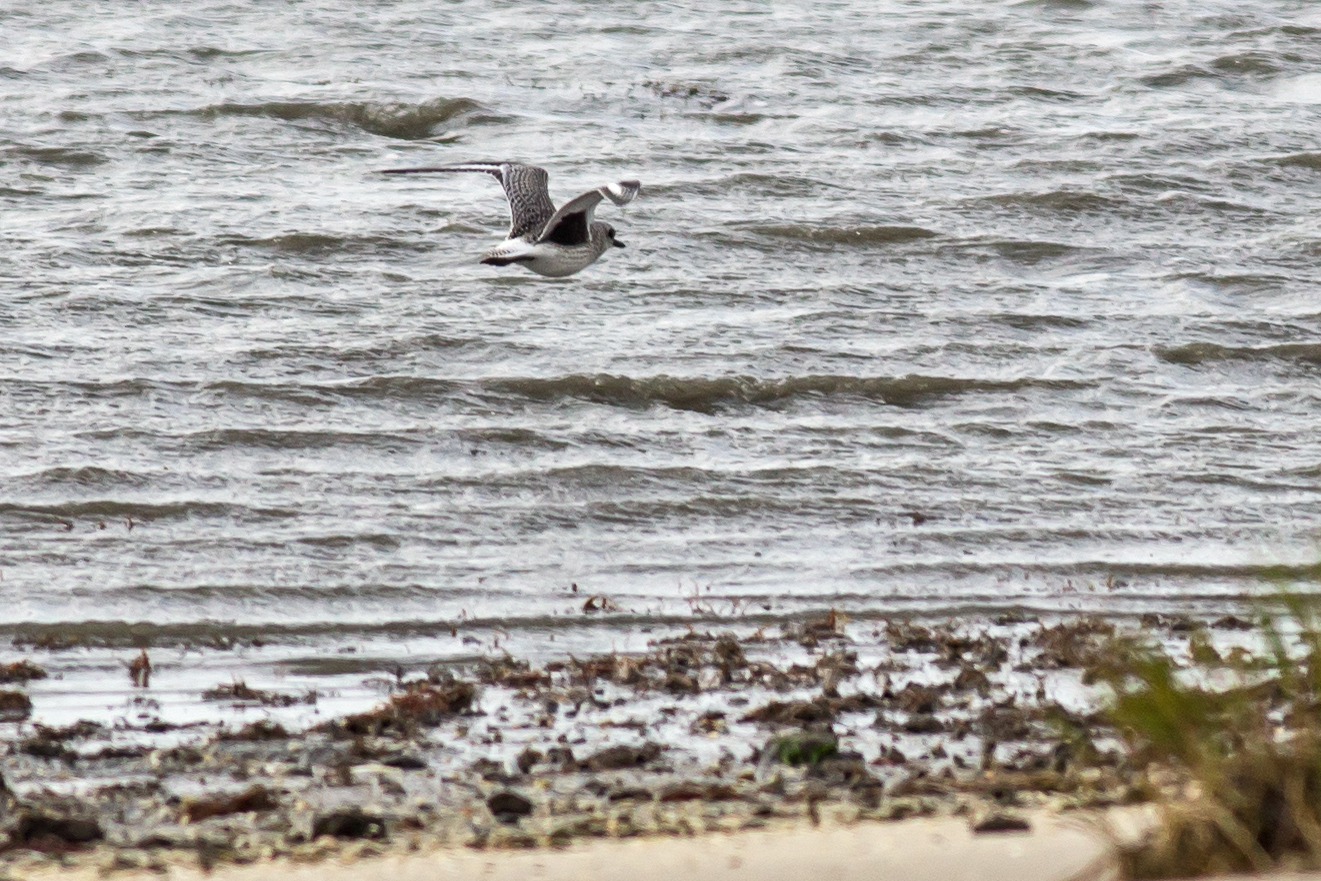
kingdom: Animalia
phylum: Chordata
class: Aves
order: Charadriiformes
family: Charadriidae
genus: Pluvialis
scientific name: Pluvialis squatarola
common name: Grey plover
